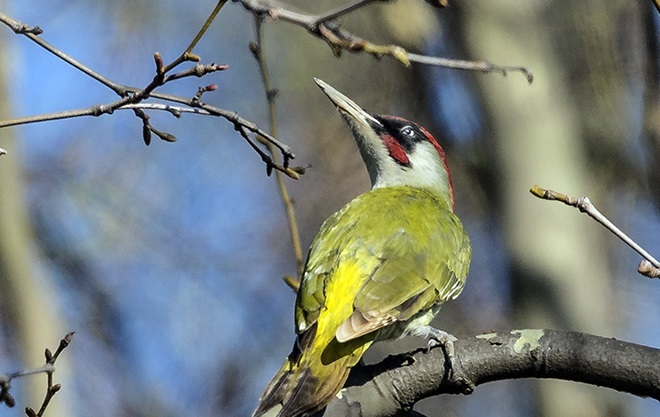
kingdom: Animalia
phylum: Chordata
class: Aves
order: Piciformes
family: Picidae
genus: Picus
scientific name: Picus viridis
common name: European green woodpecker
